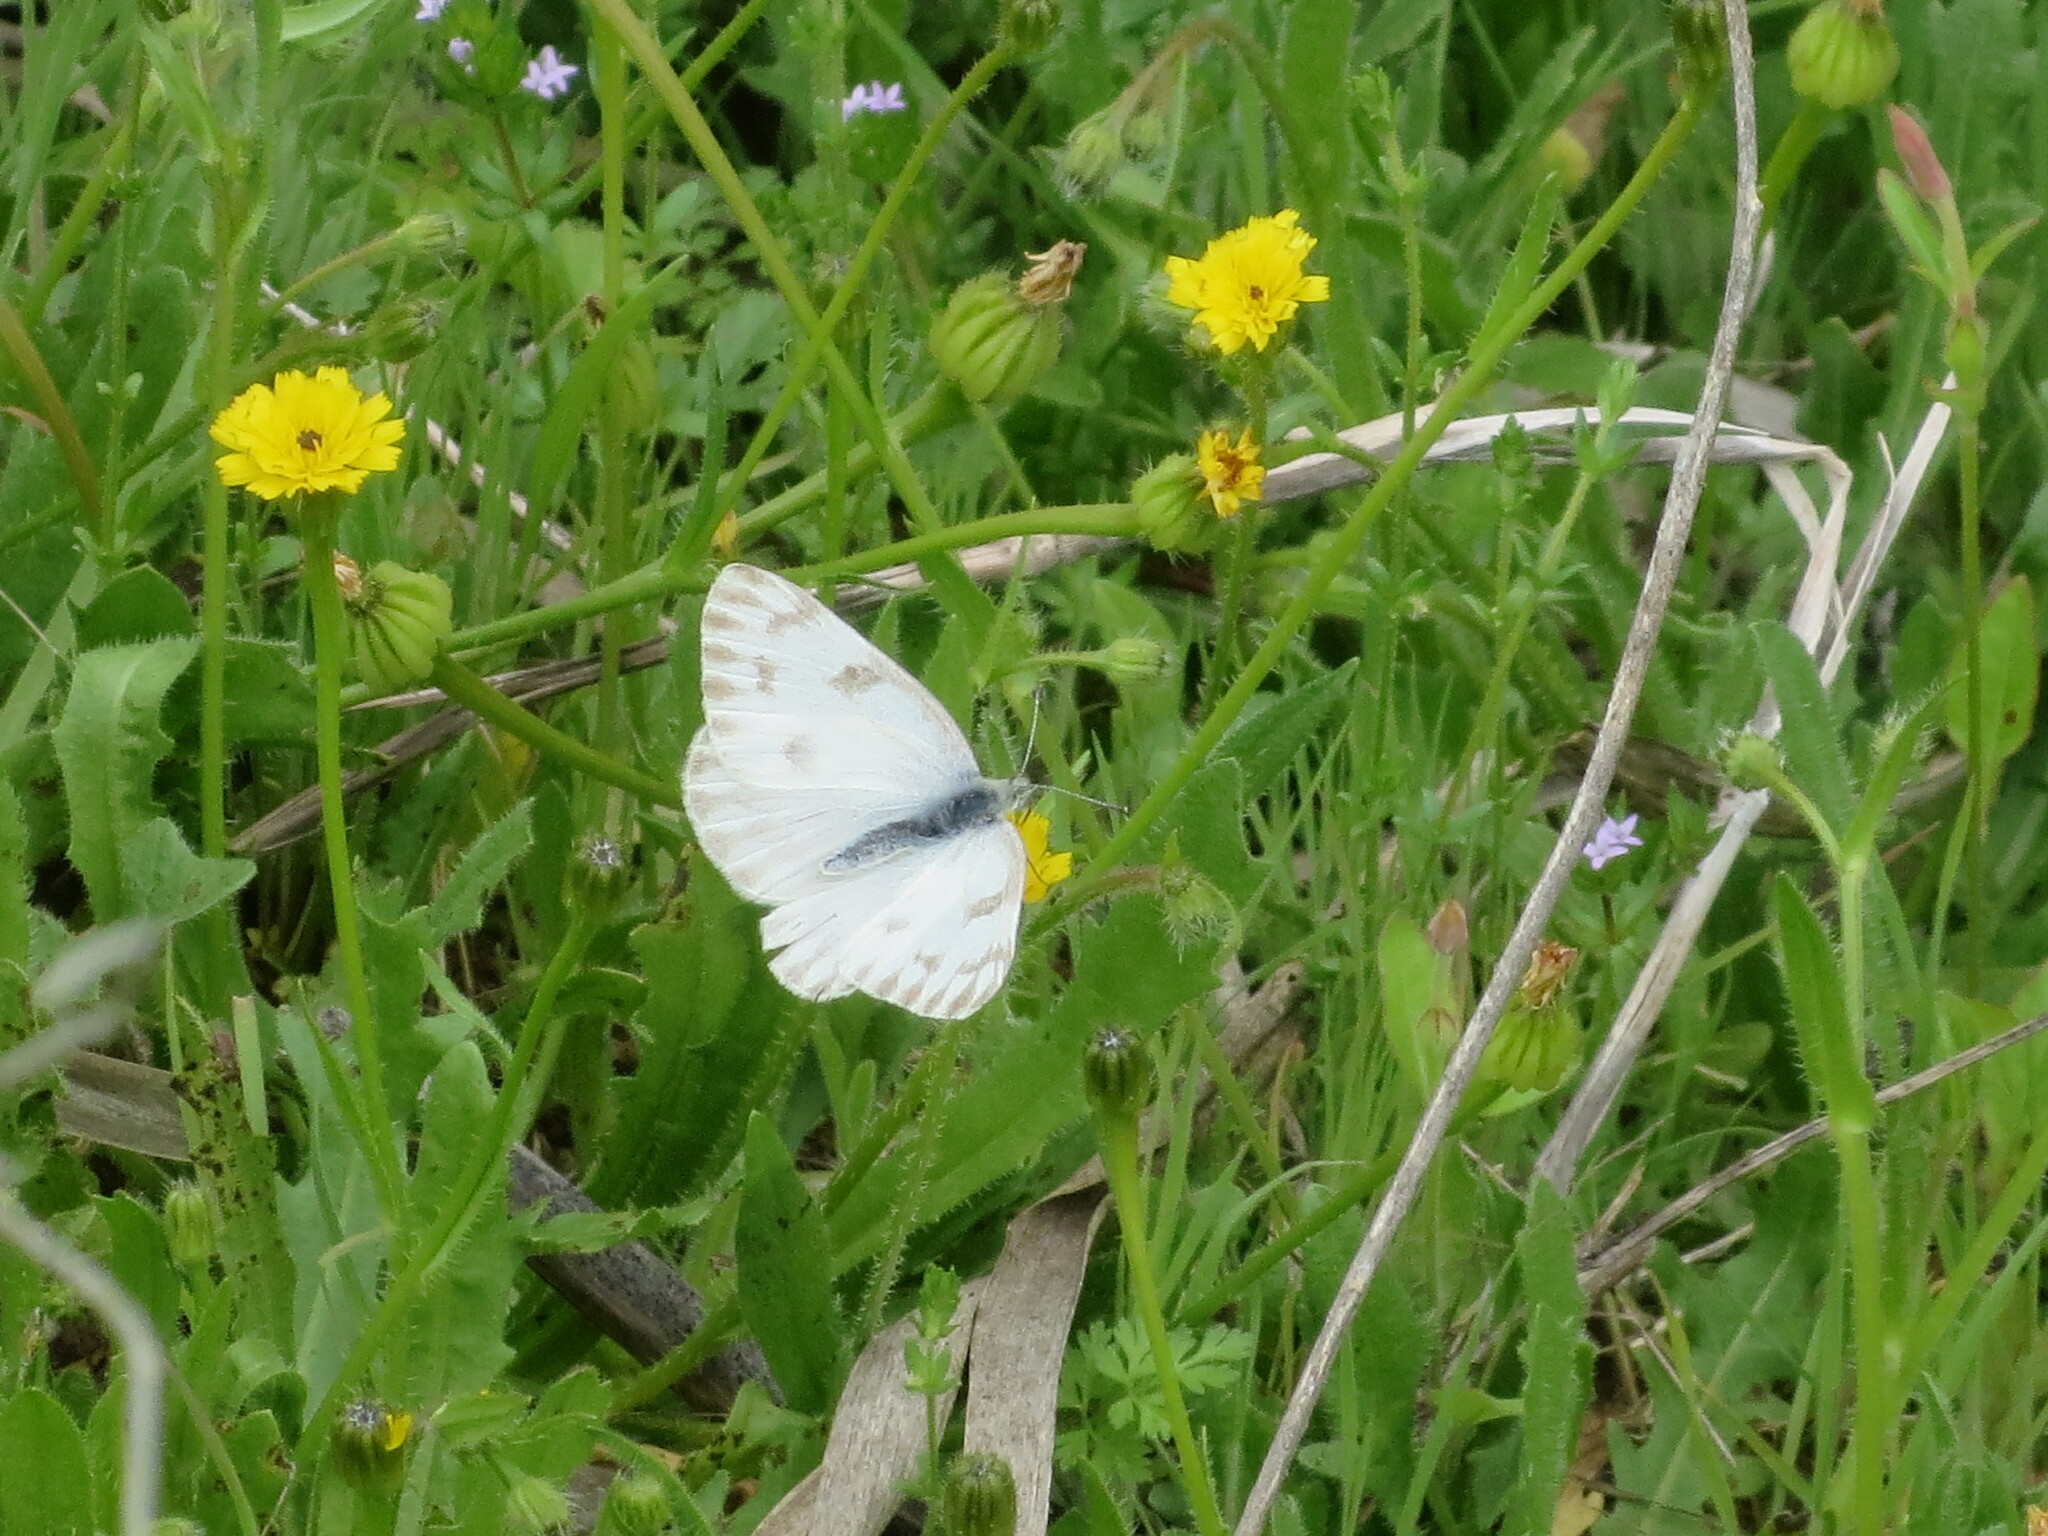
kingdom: Animalia
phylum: Arthropoda
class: Insecta
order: Lepidoptera
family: Pieridae
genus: Pontia
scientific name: Pontia protodice
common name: Checkered white
